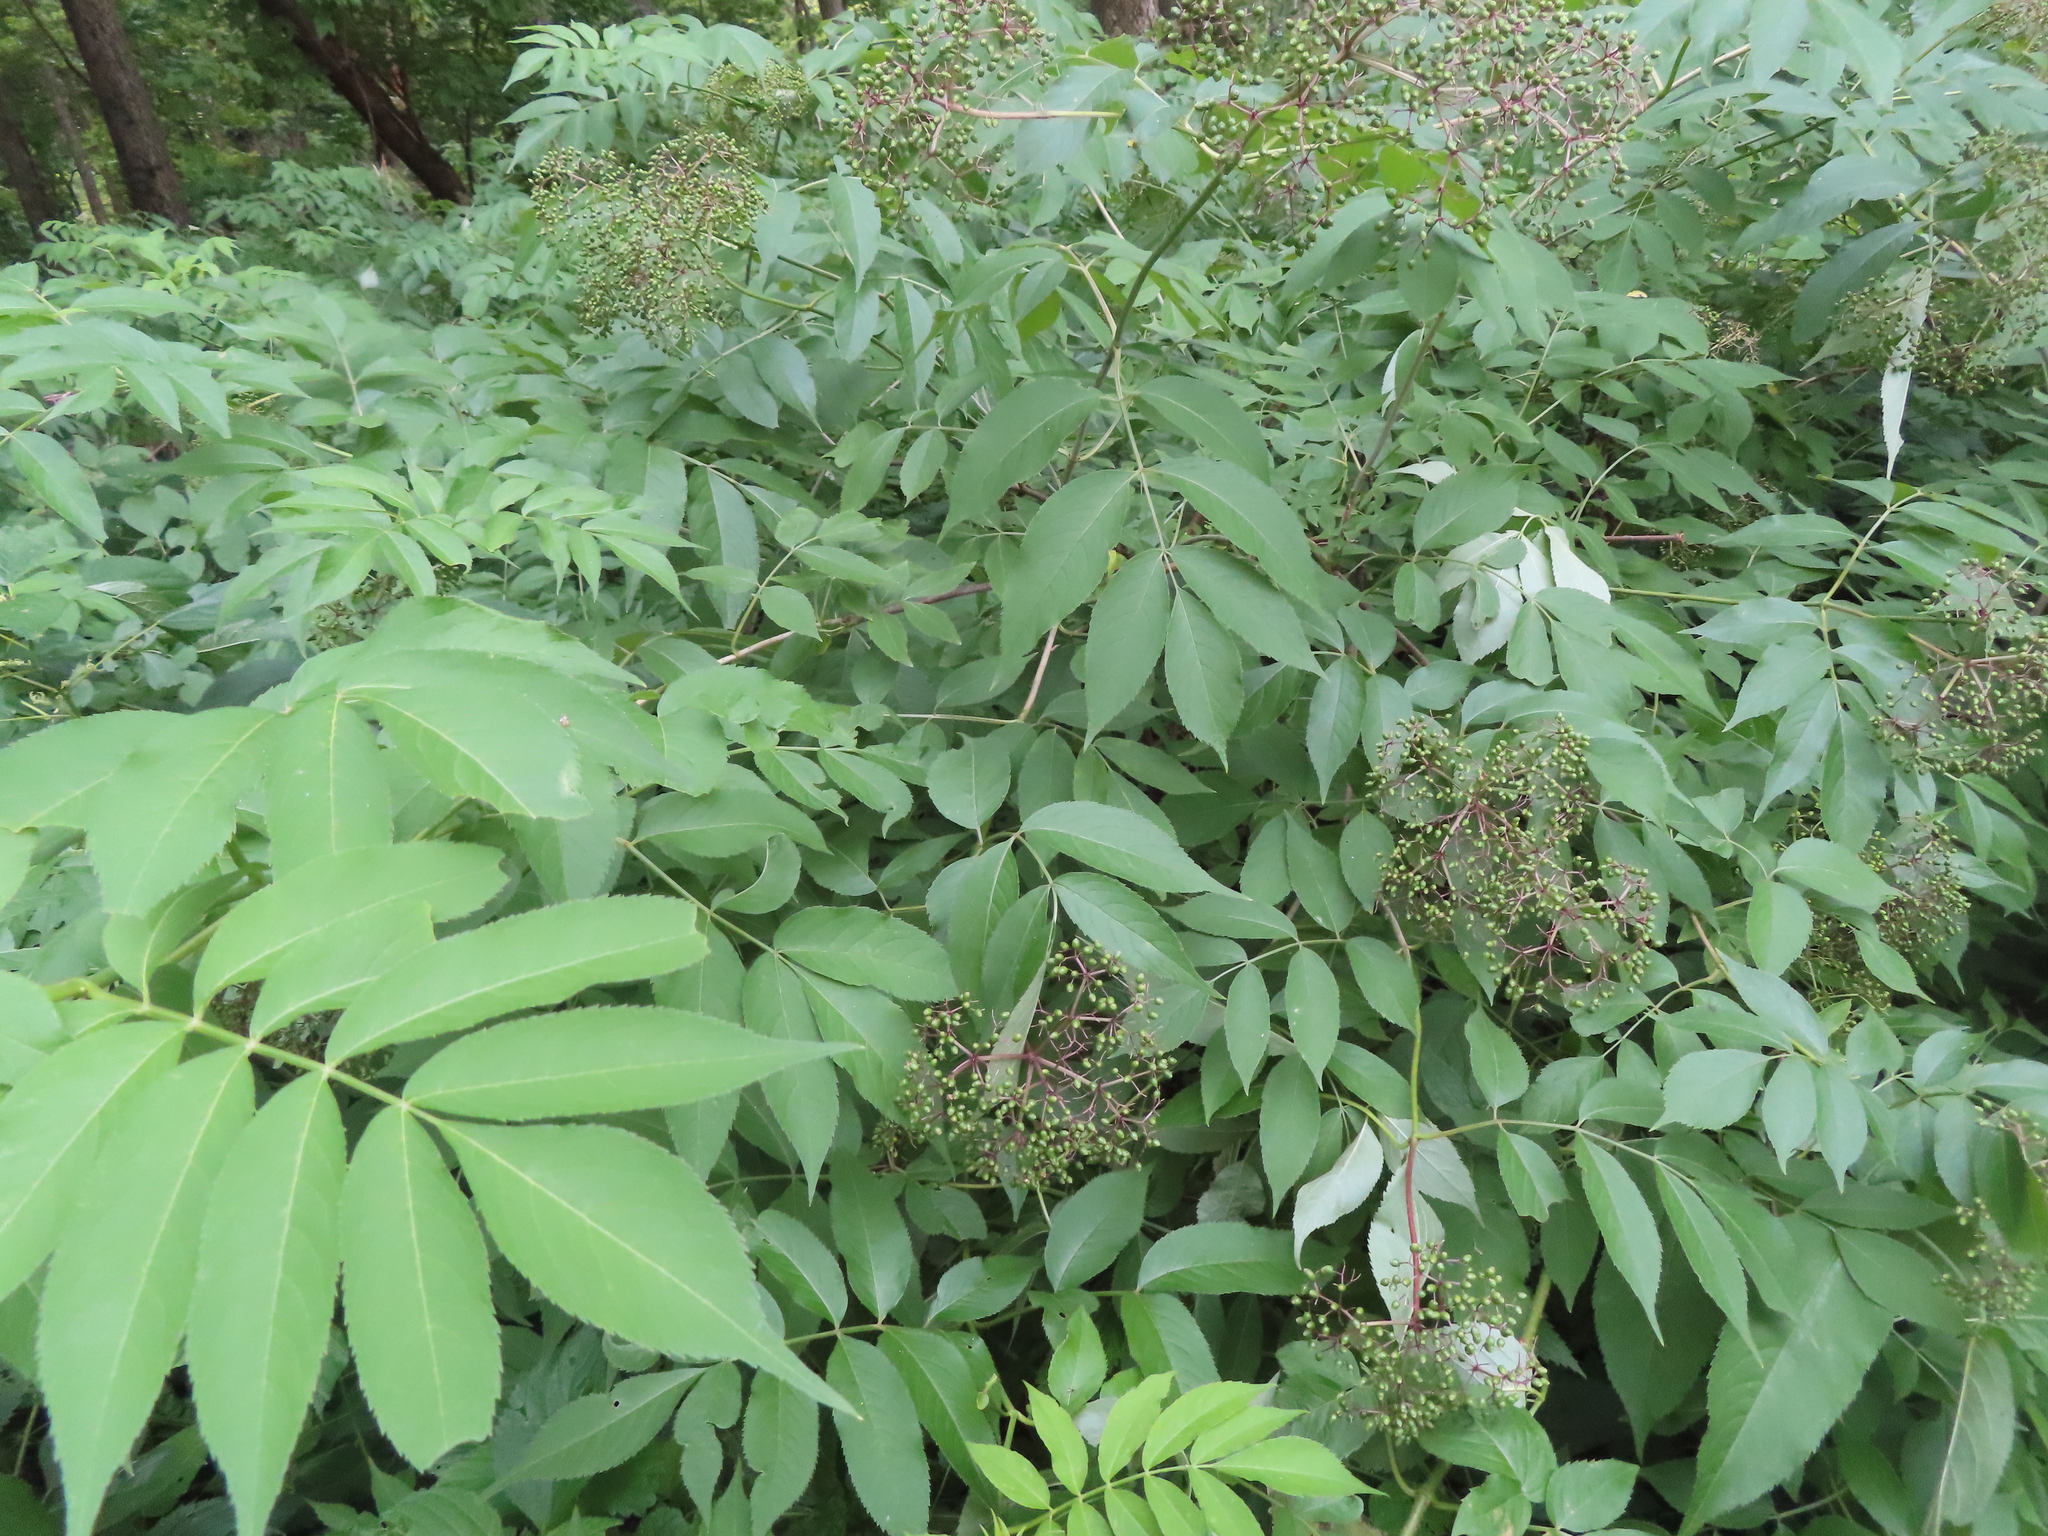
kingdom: Plantae
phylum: Tracheophyta
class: Magnoliopsida
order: Dipsacales
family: Viburnaceae
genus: Sambucus
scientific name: Sambucus canadensis
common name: American elder
